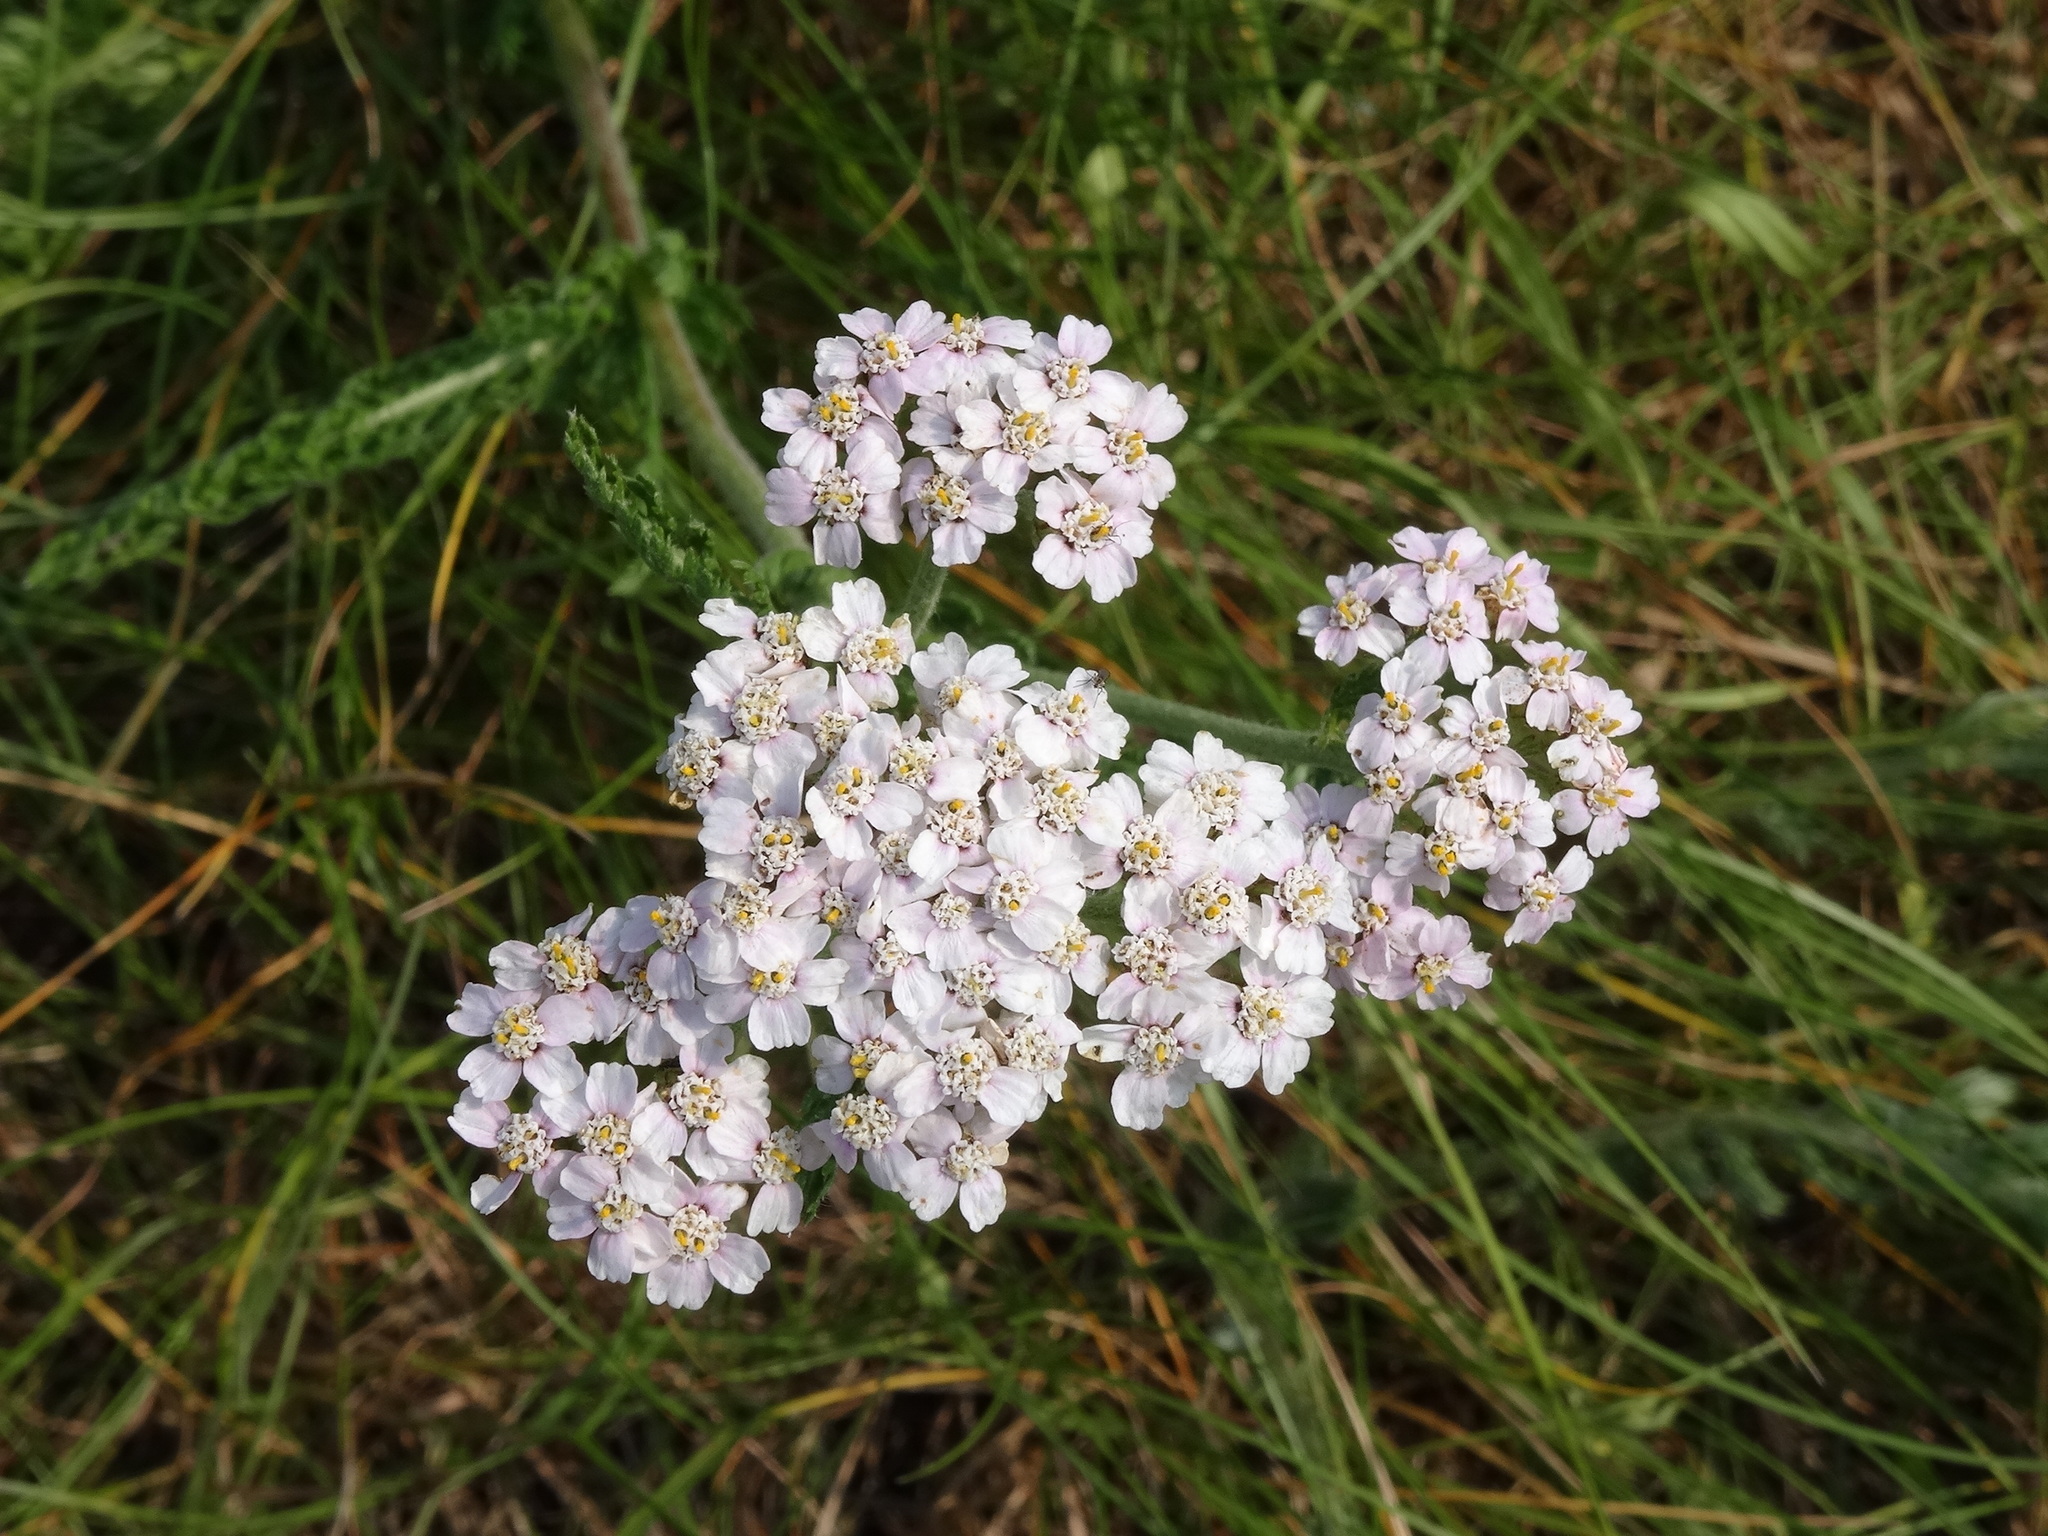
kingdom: Plantae
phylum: Tracheophyta
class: Magnoliopsida
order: Asterales
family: Asteraceae
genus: Achillea
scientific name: Achillea millefolium
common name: Yarrow
